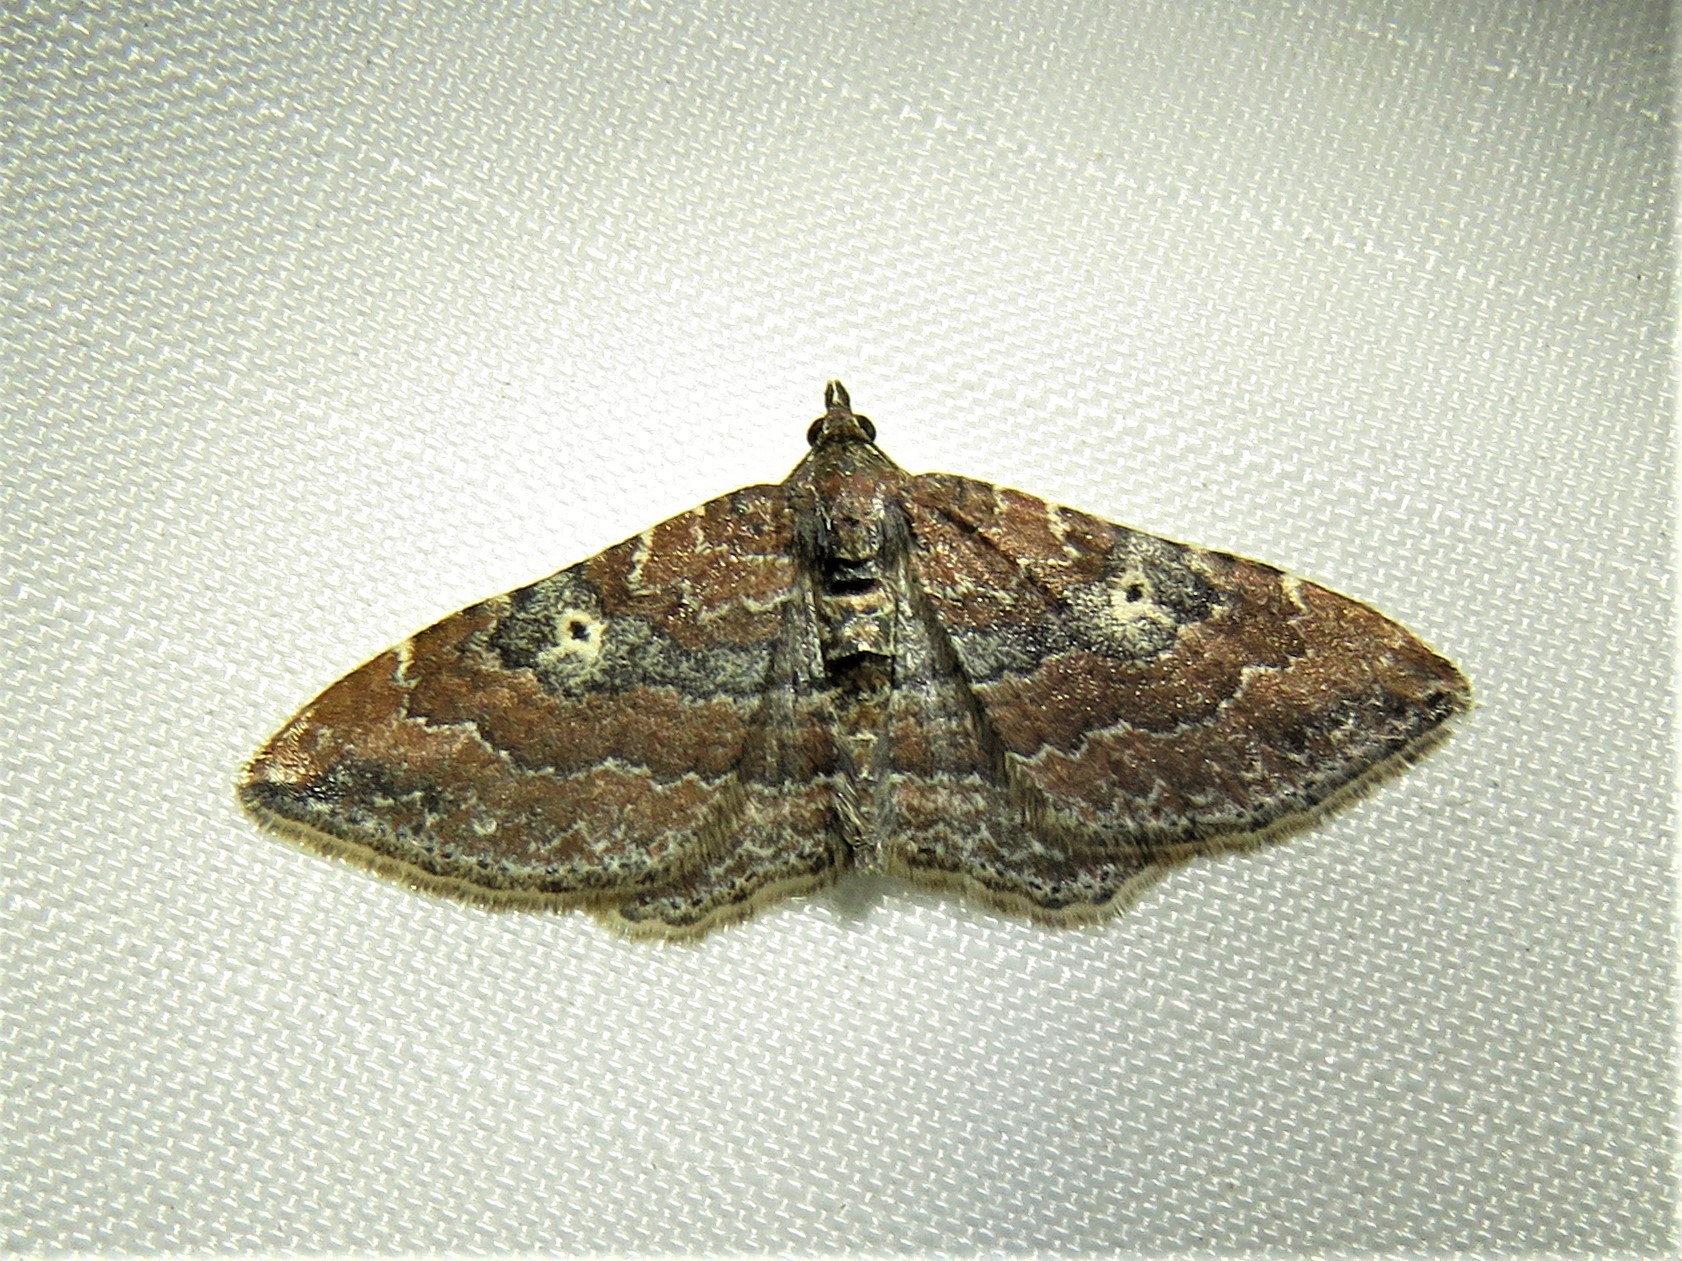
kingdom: Animalia
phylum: Arthropoda
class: Insecta
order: Lepidoptera
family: Geometridae
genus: Orthonama
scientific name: Orthonama obstipata
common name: The gem
